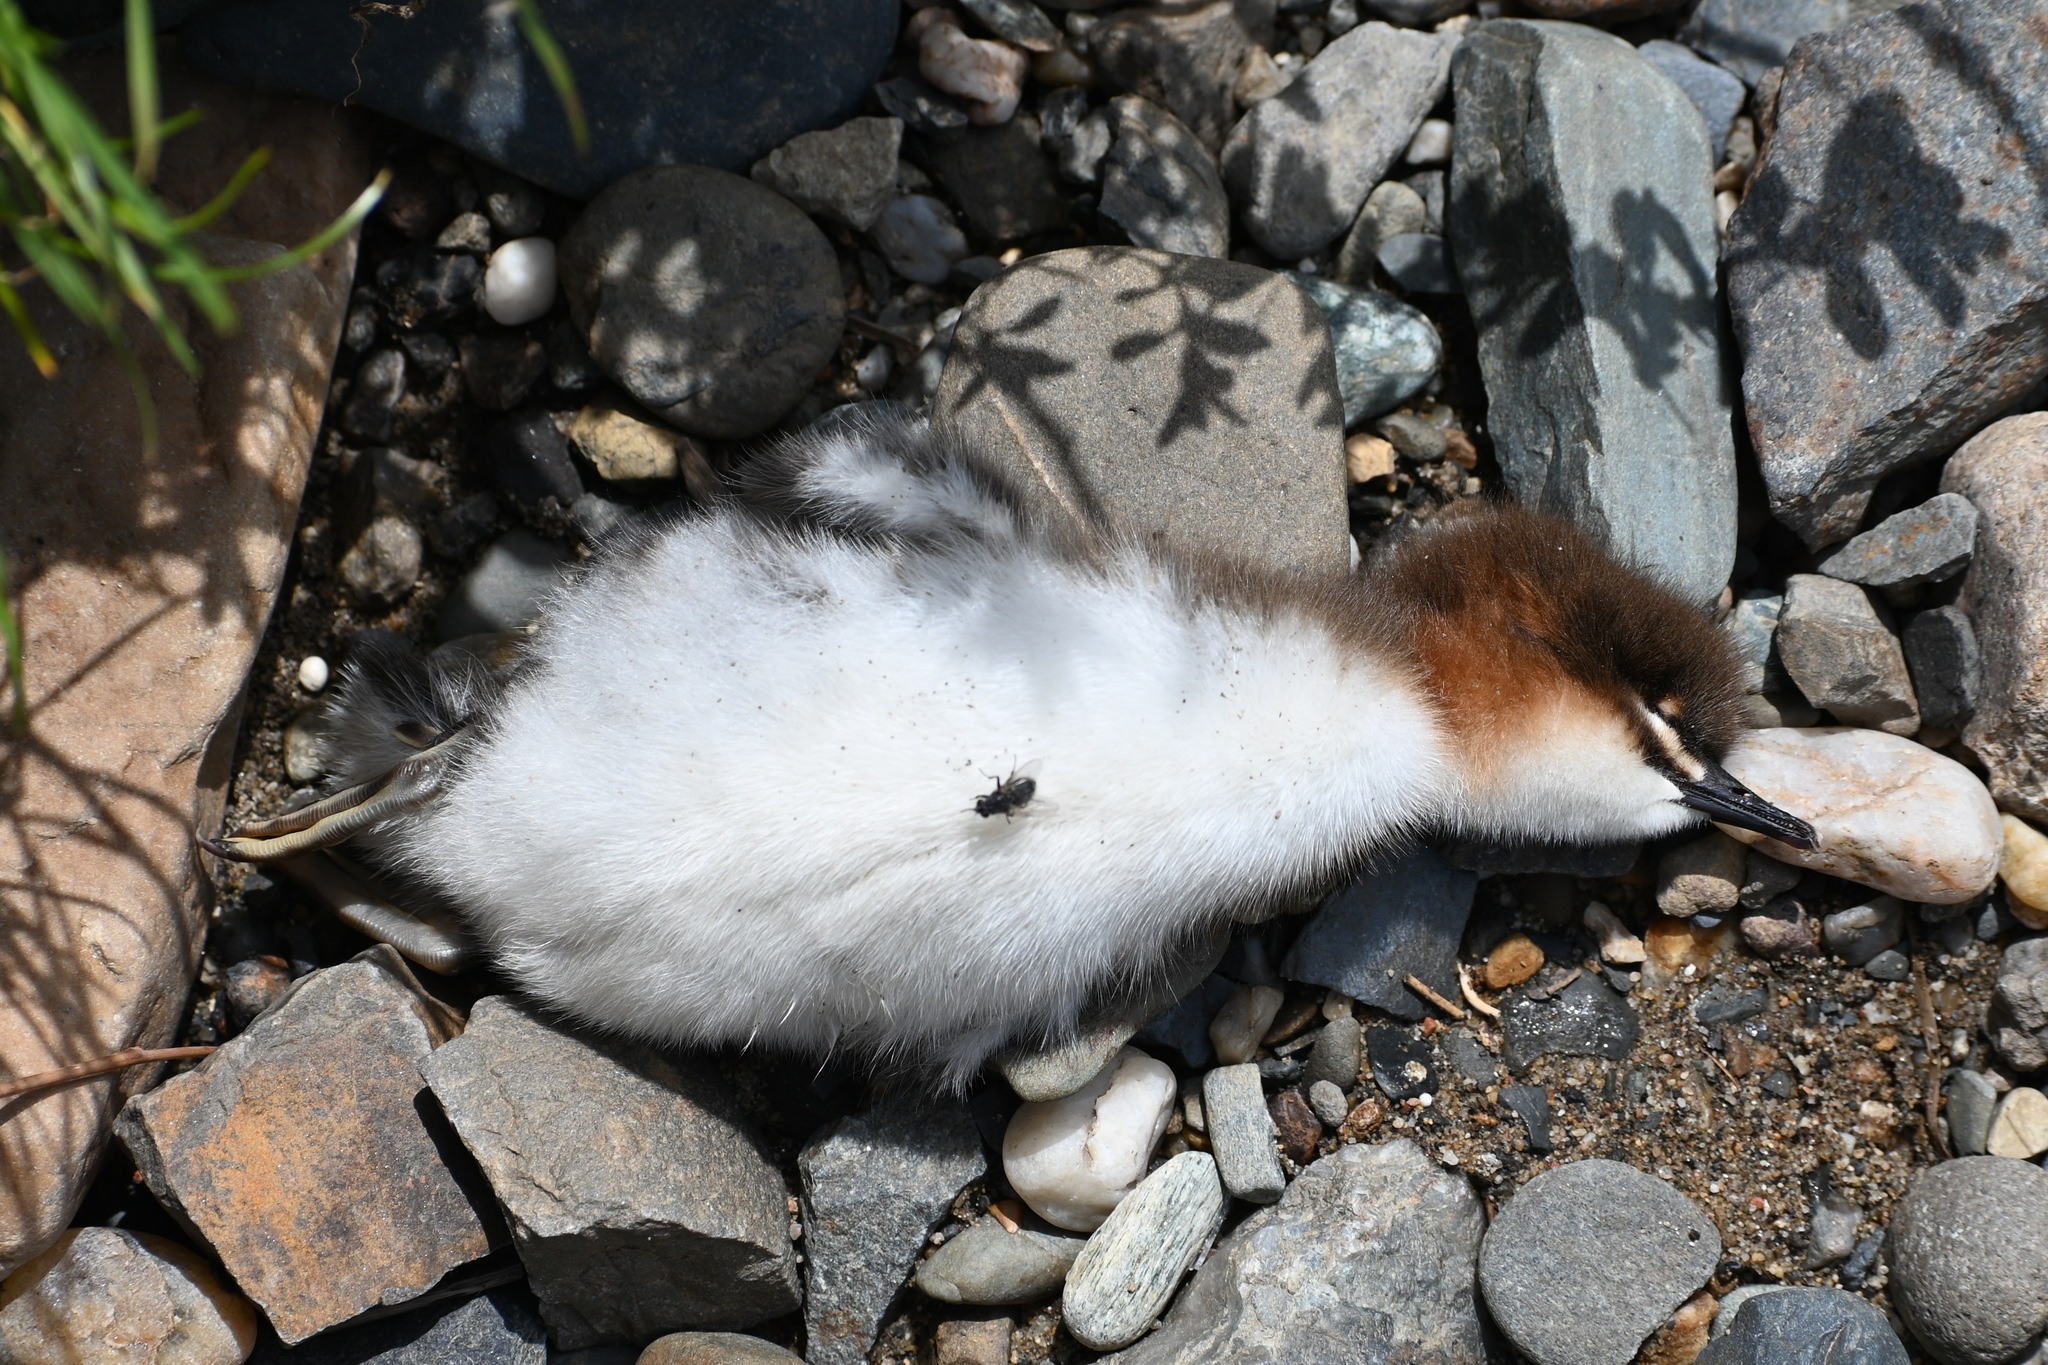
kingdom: Animalia
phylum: Chordata
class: Aves
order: Anseriformes
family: Anatidae
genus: Mergus
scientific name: Mergus merganser
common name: Common merganser
